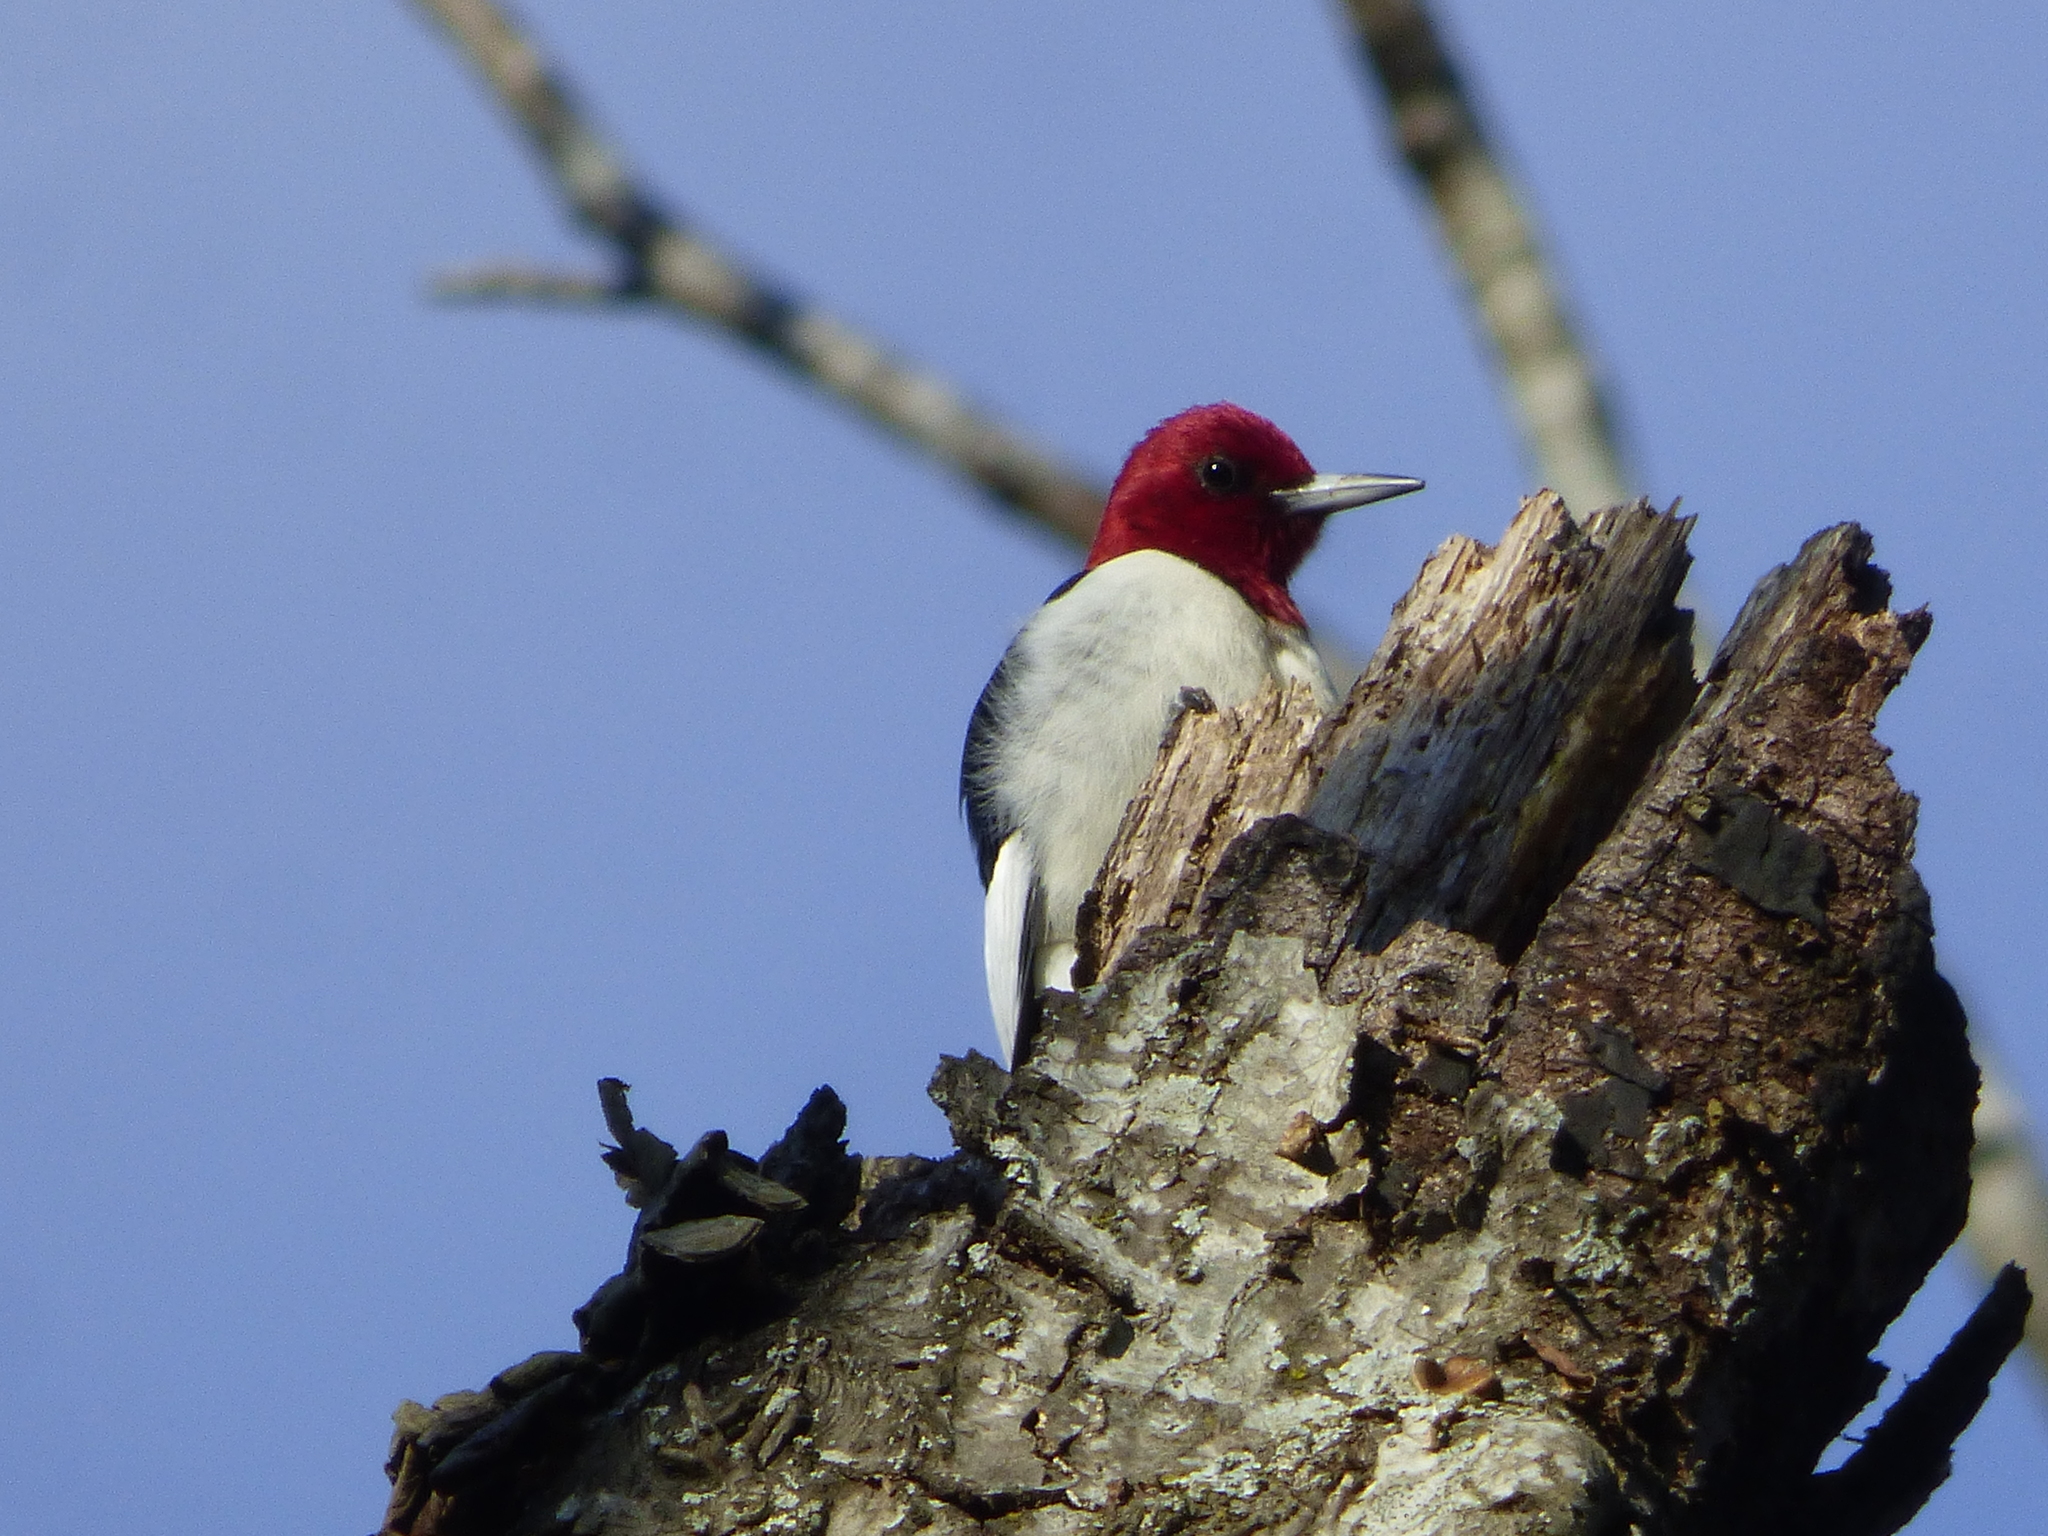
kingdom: Animalia
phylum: Chordata
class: Aves
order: Piciformes
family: Picidae
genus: Melanerpes
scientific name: Melanerpes erythrocephalus
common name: Red-headed woodpecker
